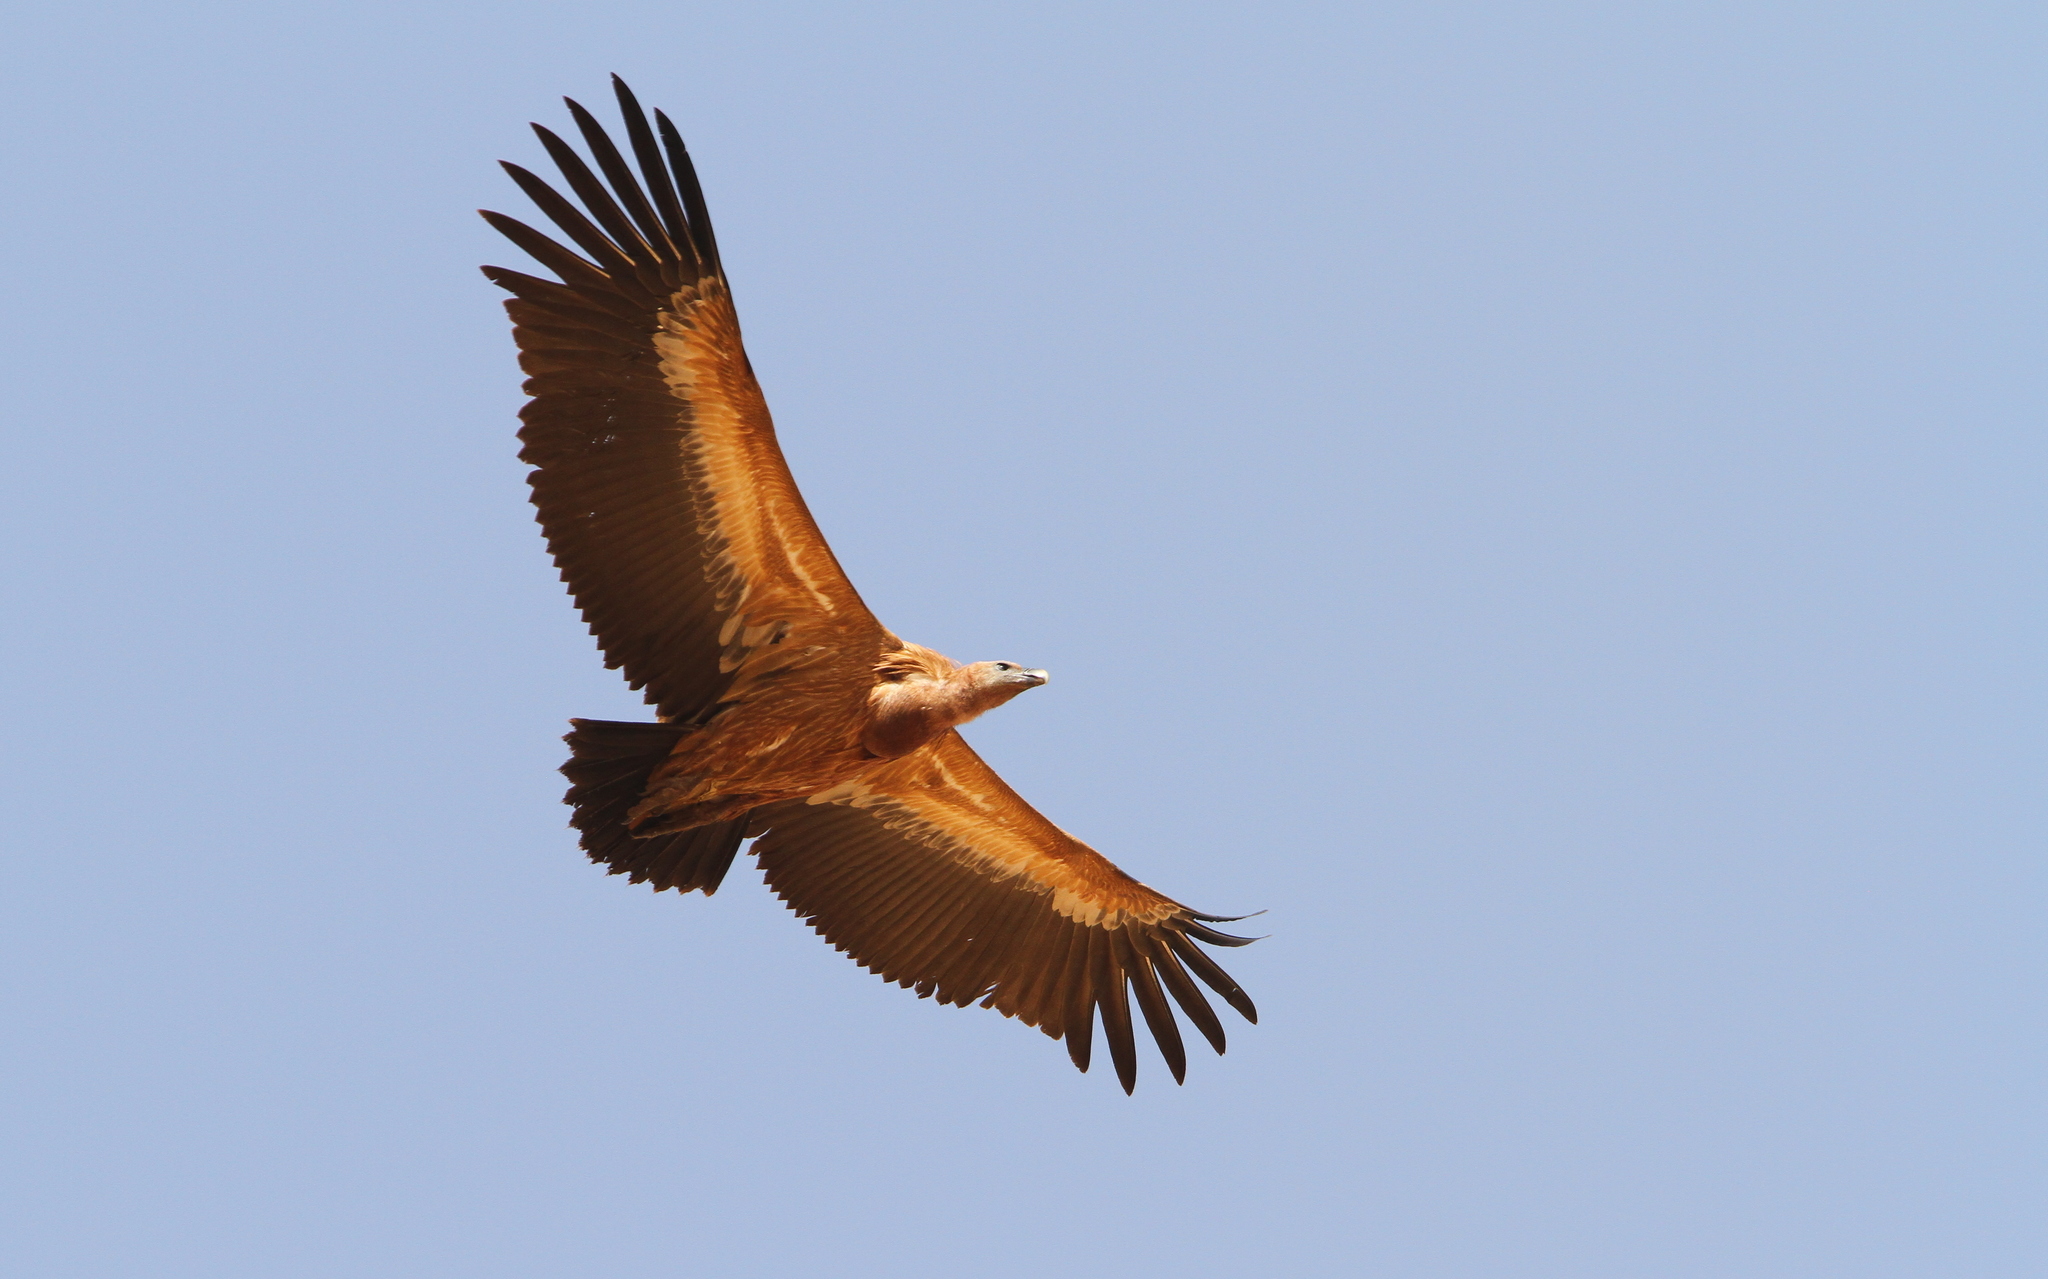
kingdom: Animalia
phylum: Chordata
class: Aves
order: Accipitriformes
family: Accipitridae
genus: Gyps
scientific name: Gyps fulvus
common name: Griffon vulture
